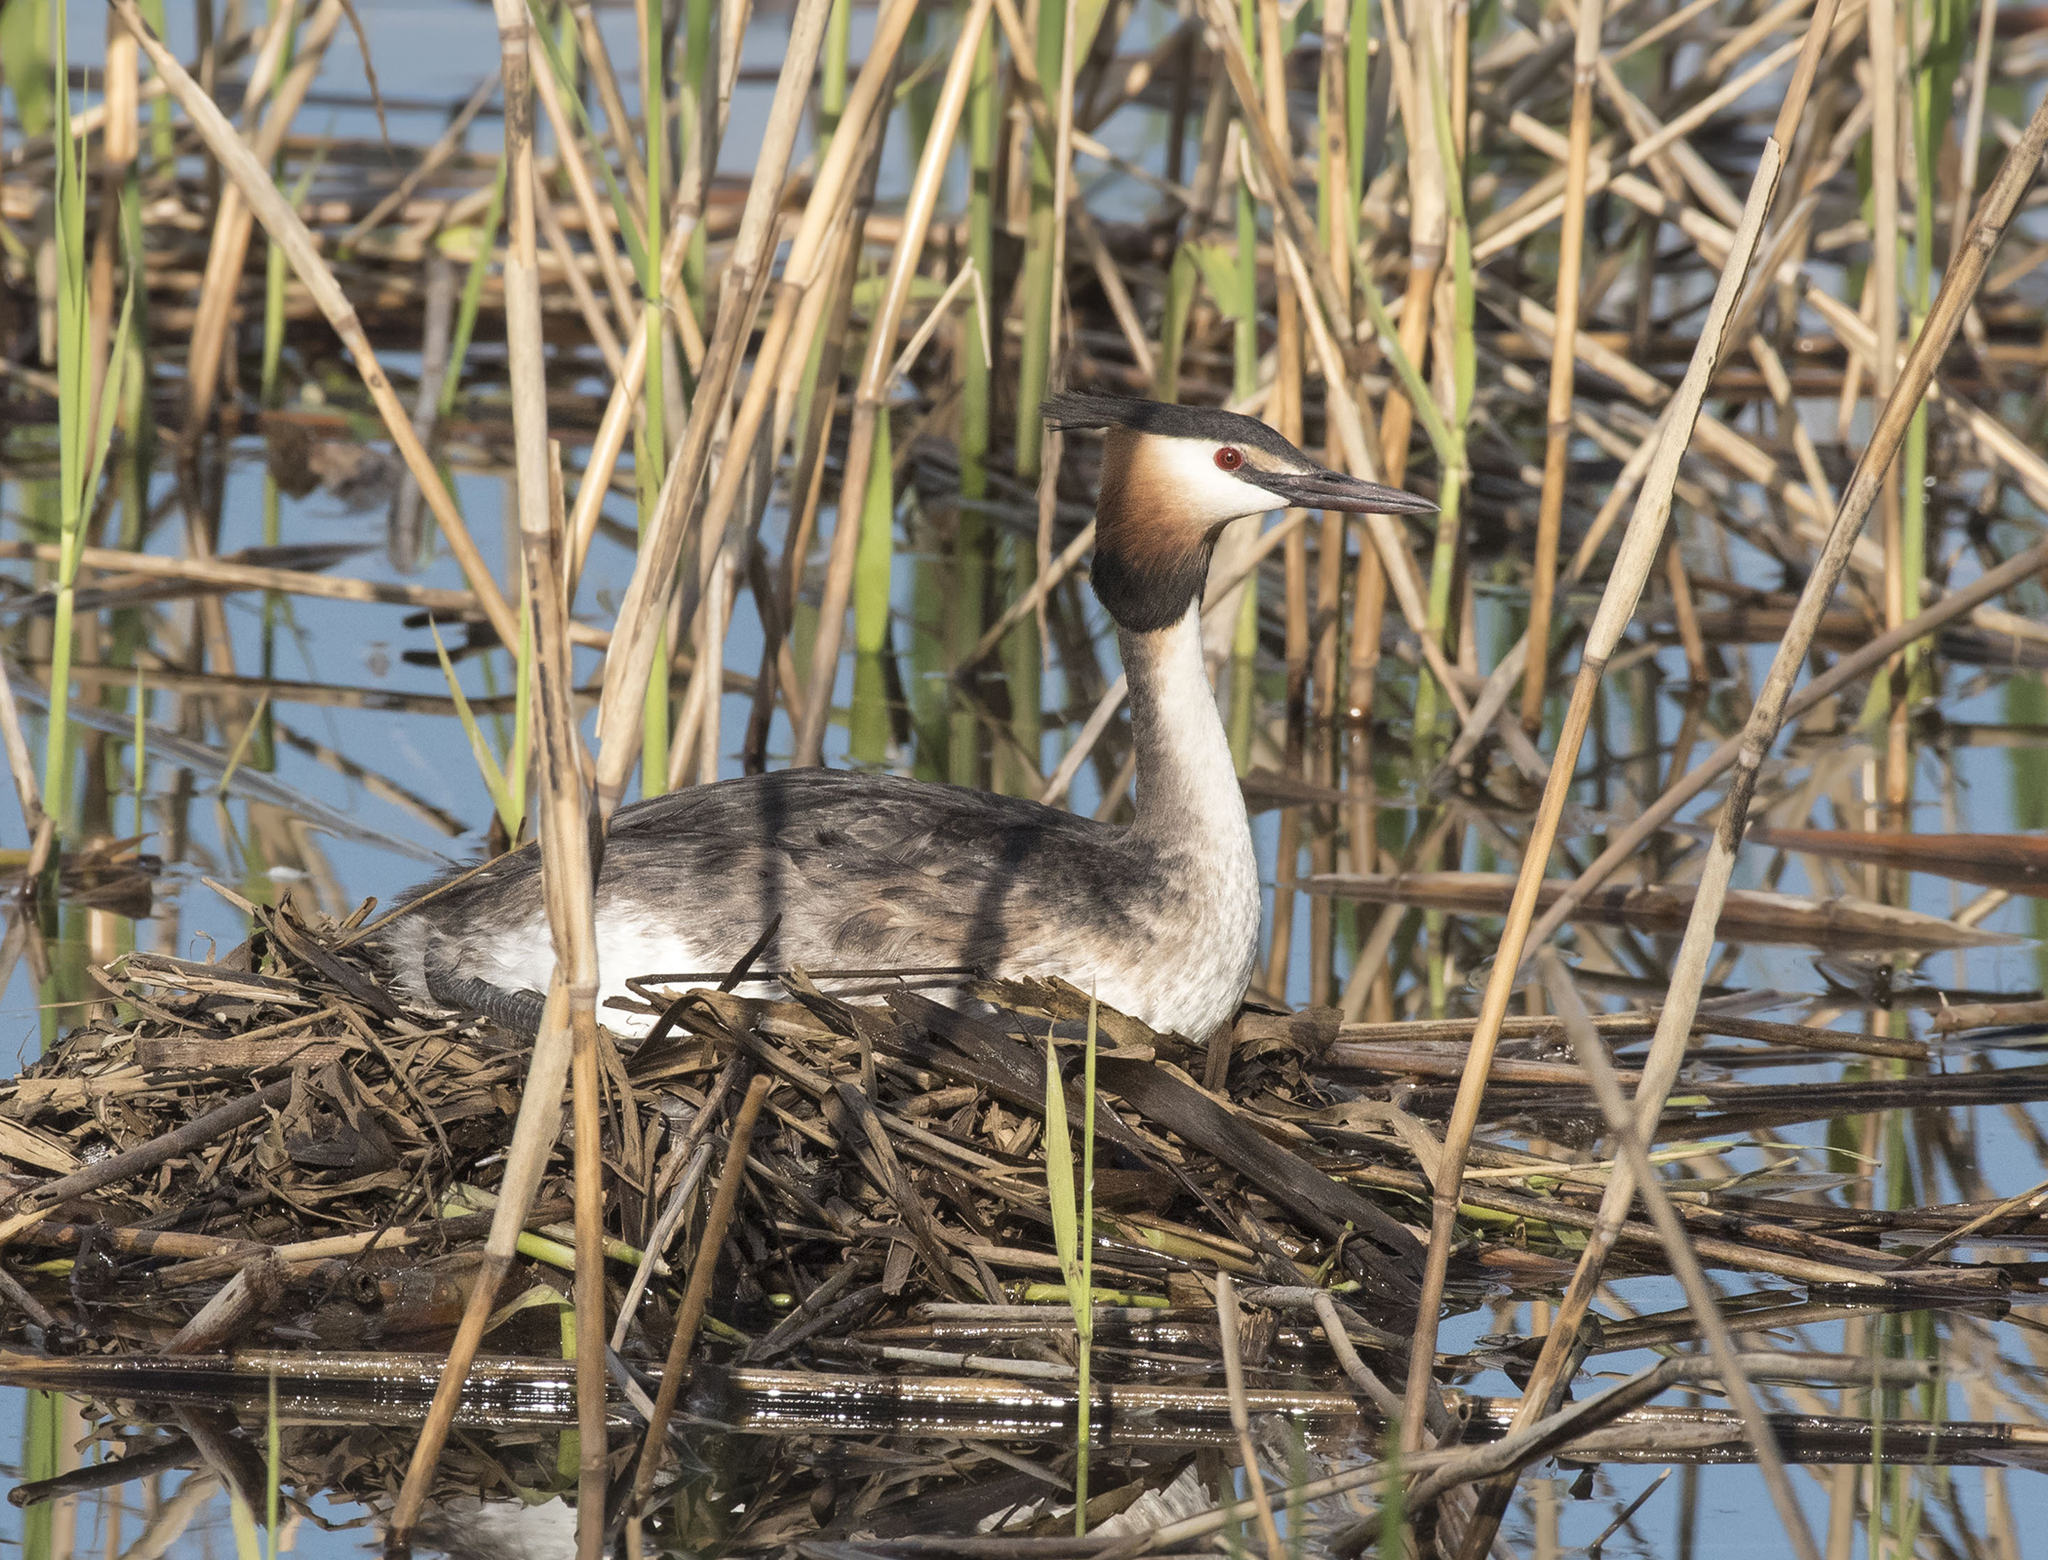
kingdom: Animalia
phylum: Chordata
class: Aves
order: Podicipediformes
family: Podicipedidae
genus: Podiceps
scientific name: Podiceps cristatus
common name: Great crested grebe
